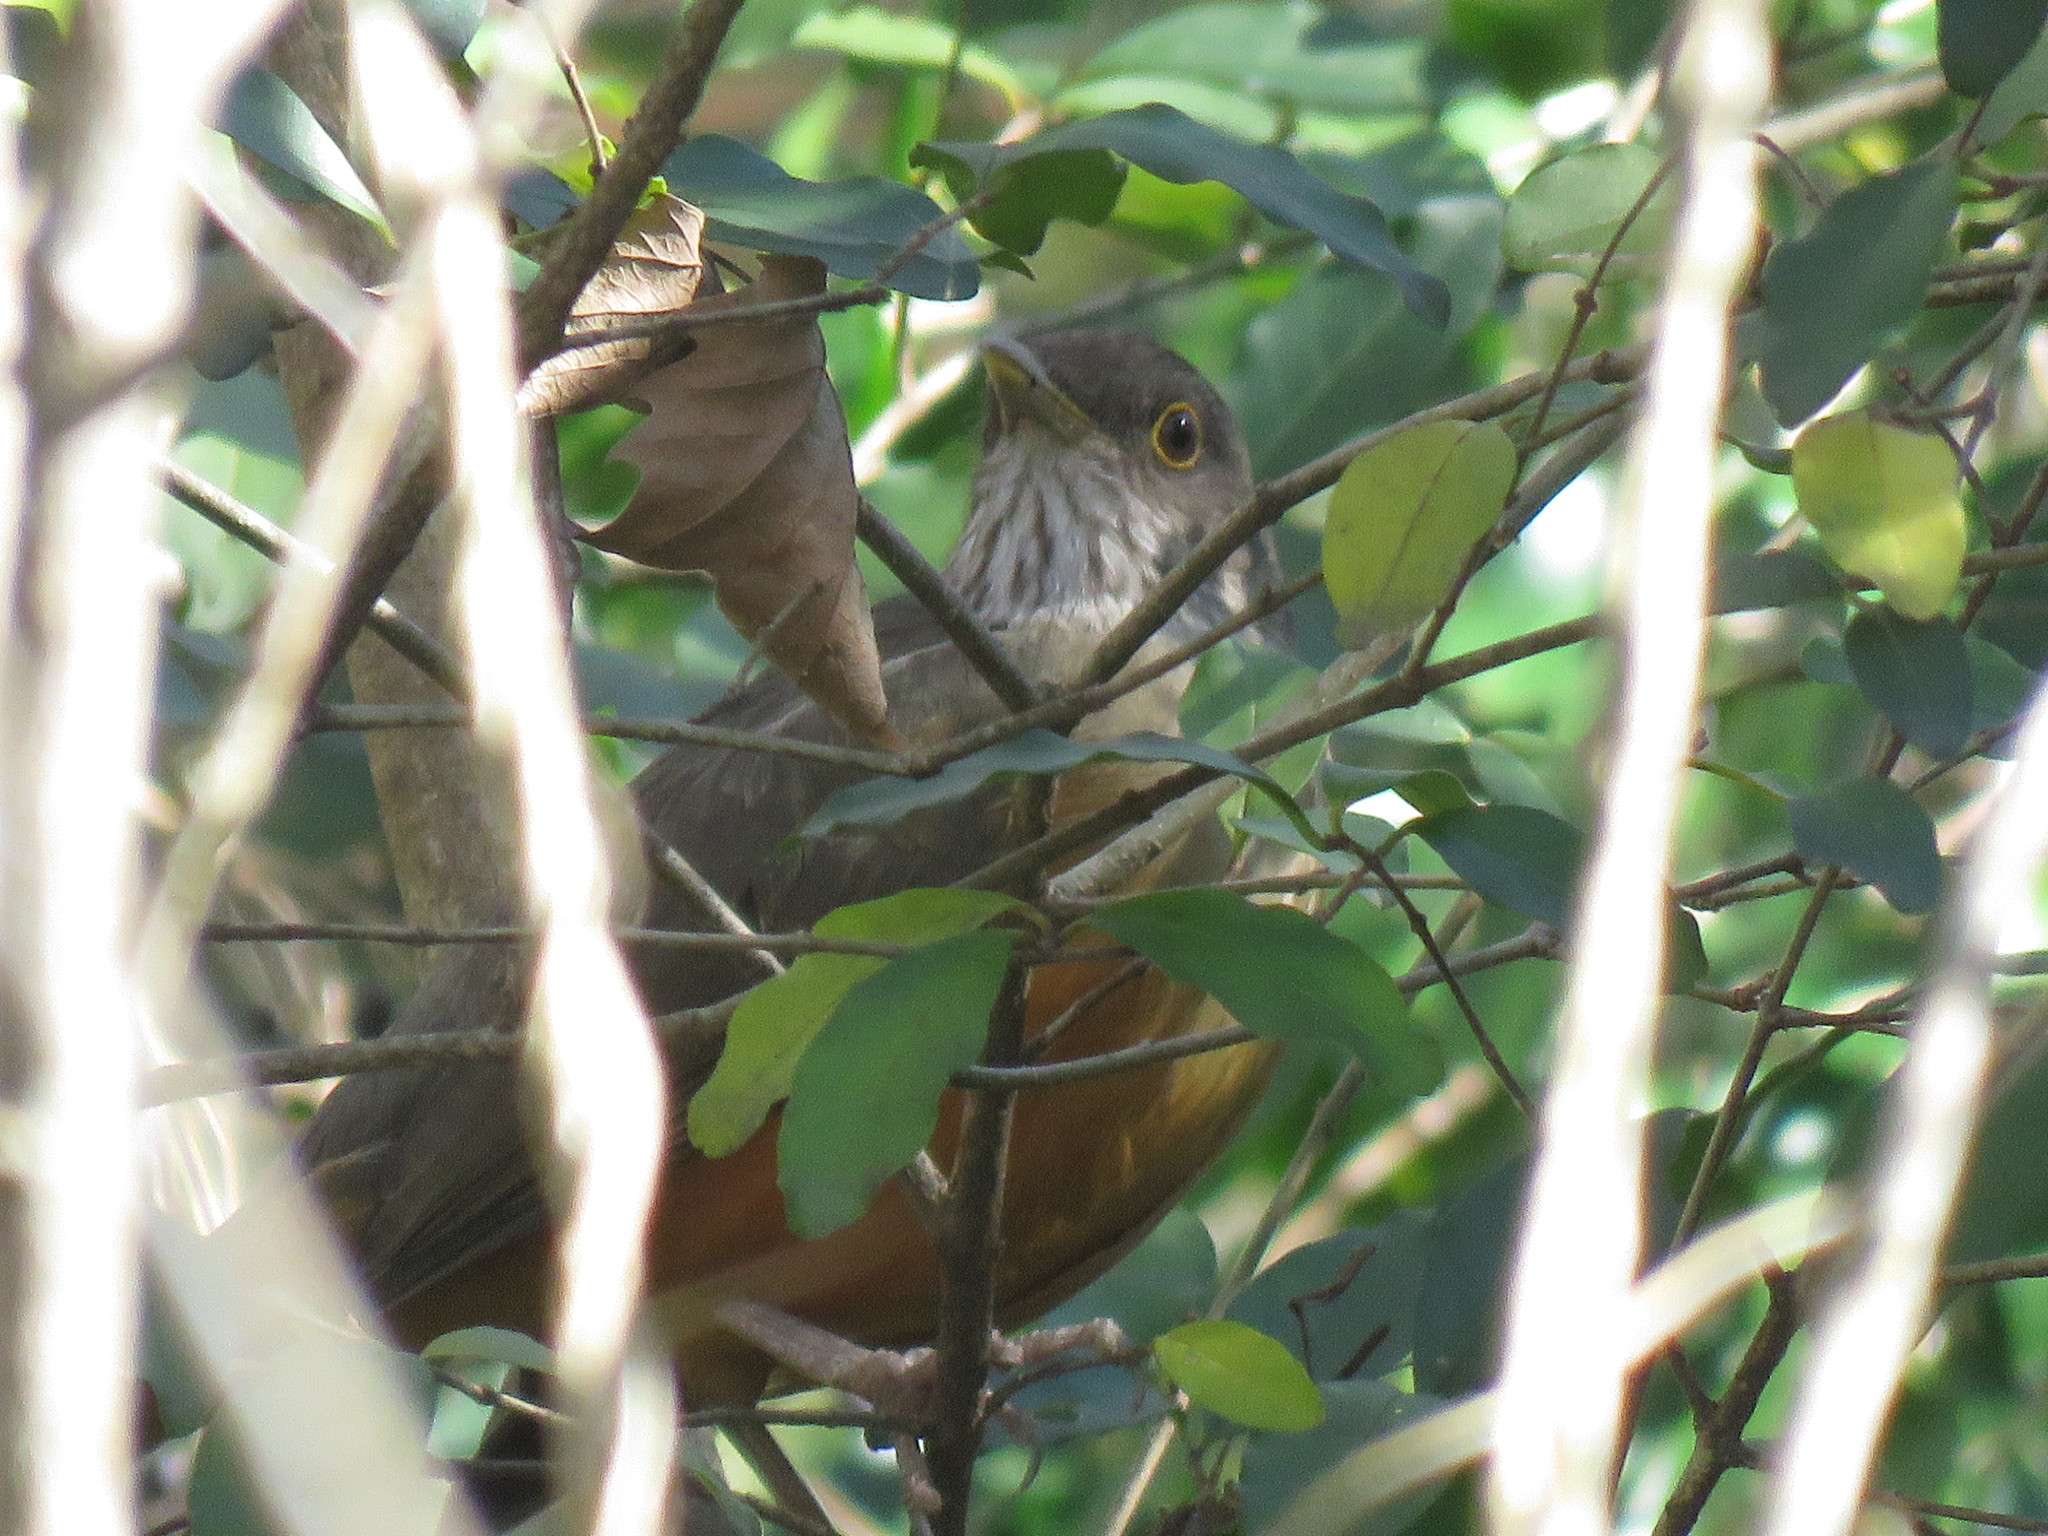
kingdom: Animalia
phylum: Chordata
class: Aves
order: Passeriformes
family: Turdidae
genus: Turdus
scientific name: Turdus rufiventris
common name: Rufous-bellied thrush
